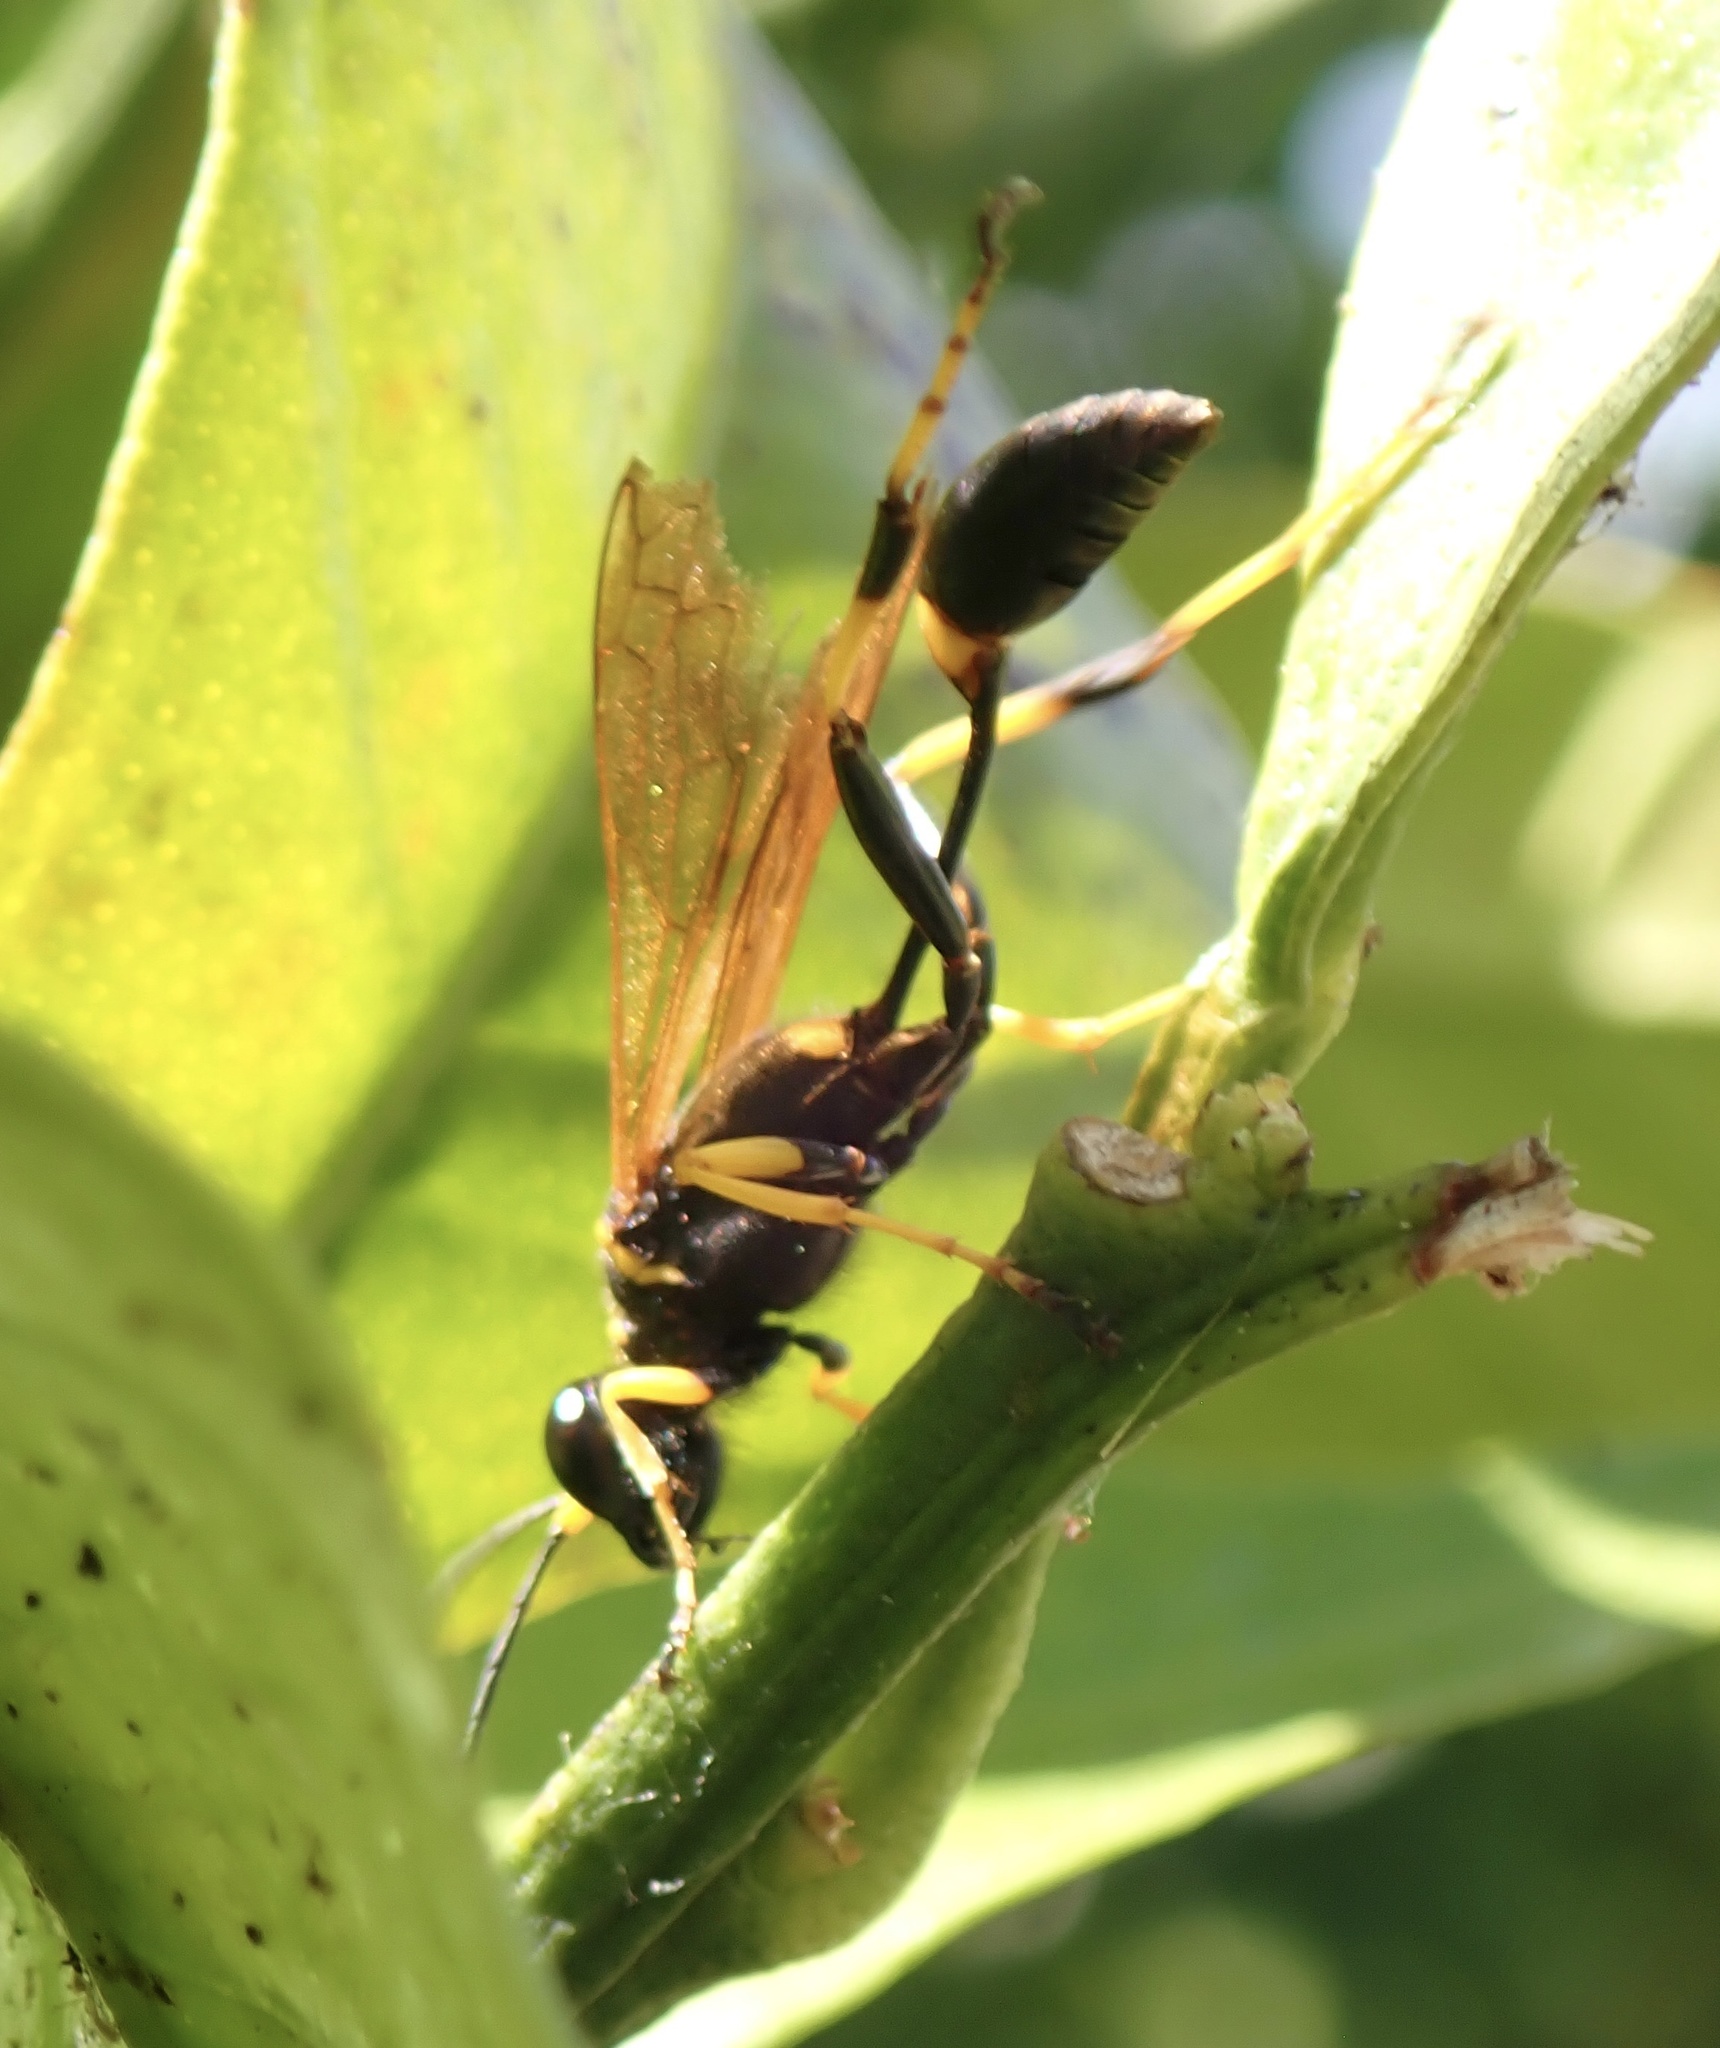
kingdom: Animalia
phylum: Arthropoda
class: Insecta
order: Hymenoptera
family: Sphecidae
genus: Sceliphron
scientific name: Sceliphron caementarium
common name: Mud dauber
